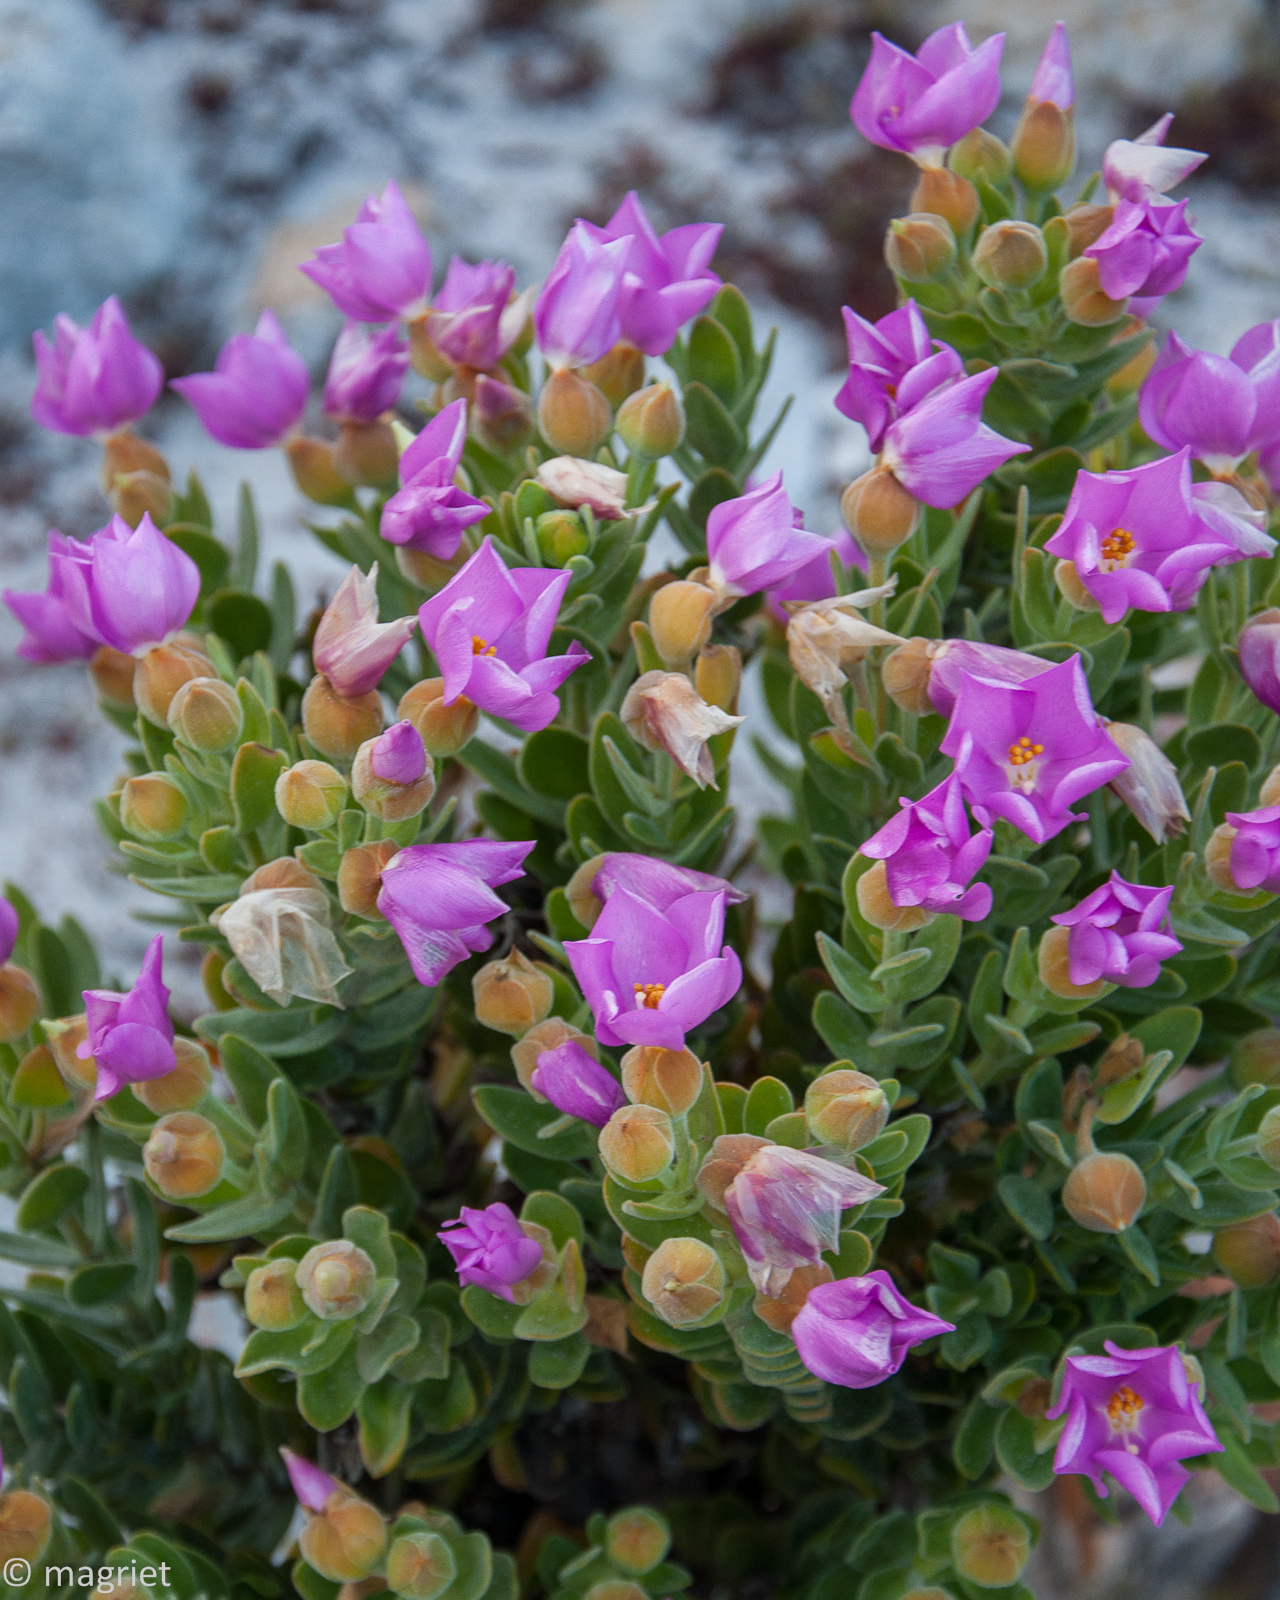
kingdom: Plantae
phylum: Tracheophyta
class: Magnoliopsida
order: Gentianales
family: Gentianaceae
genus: Orphium
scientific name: Orphium frutescens
